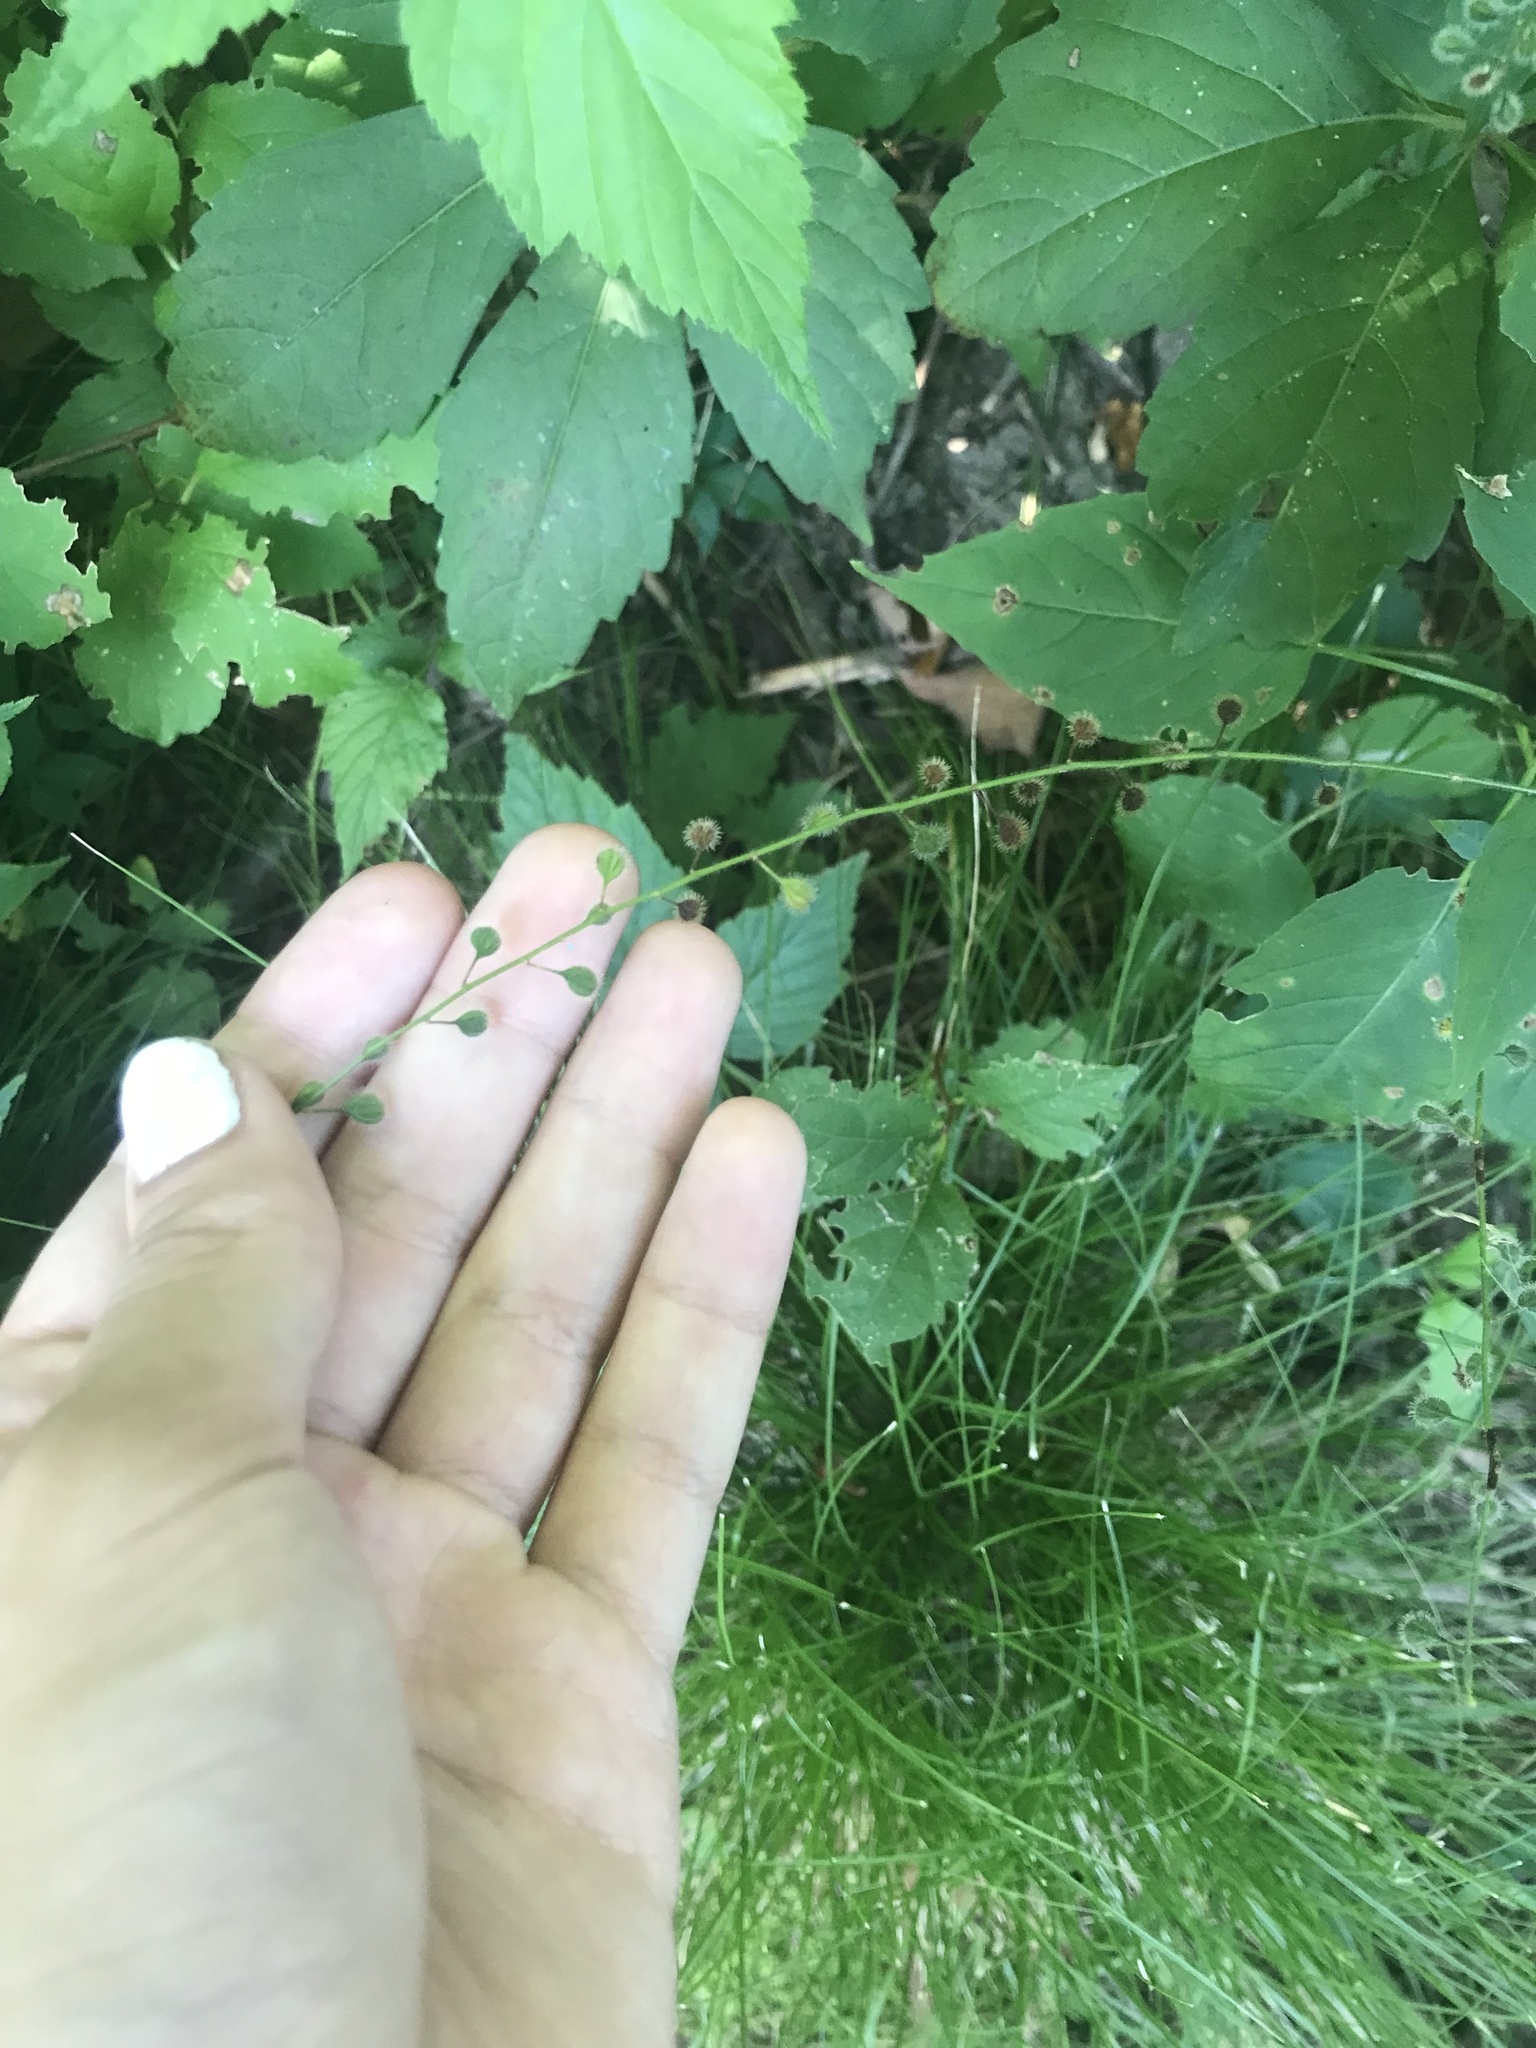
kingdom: Plantae
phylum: Tracheophyta
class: Magnoliopsida
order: Myrtales
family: Onagraceae
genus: Circaea
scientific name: Circaea canadensis
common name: Broad-leaved enchanter's nightshade
